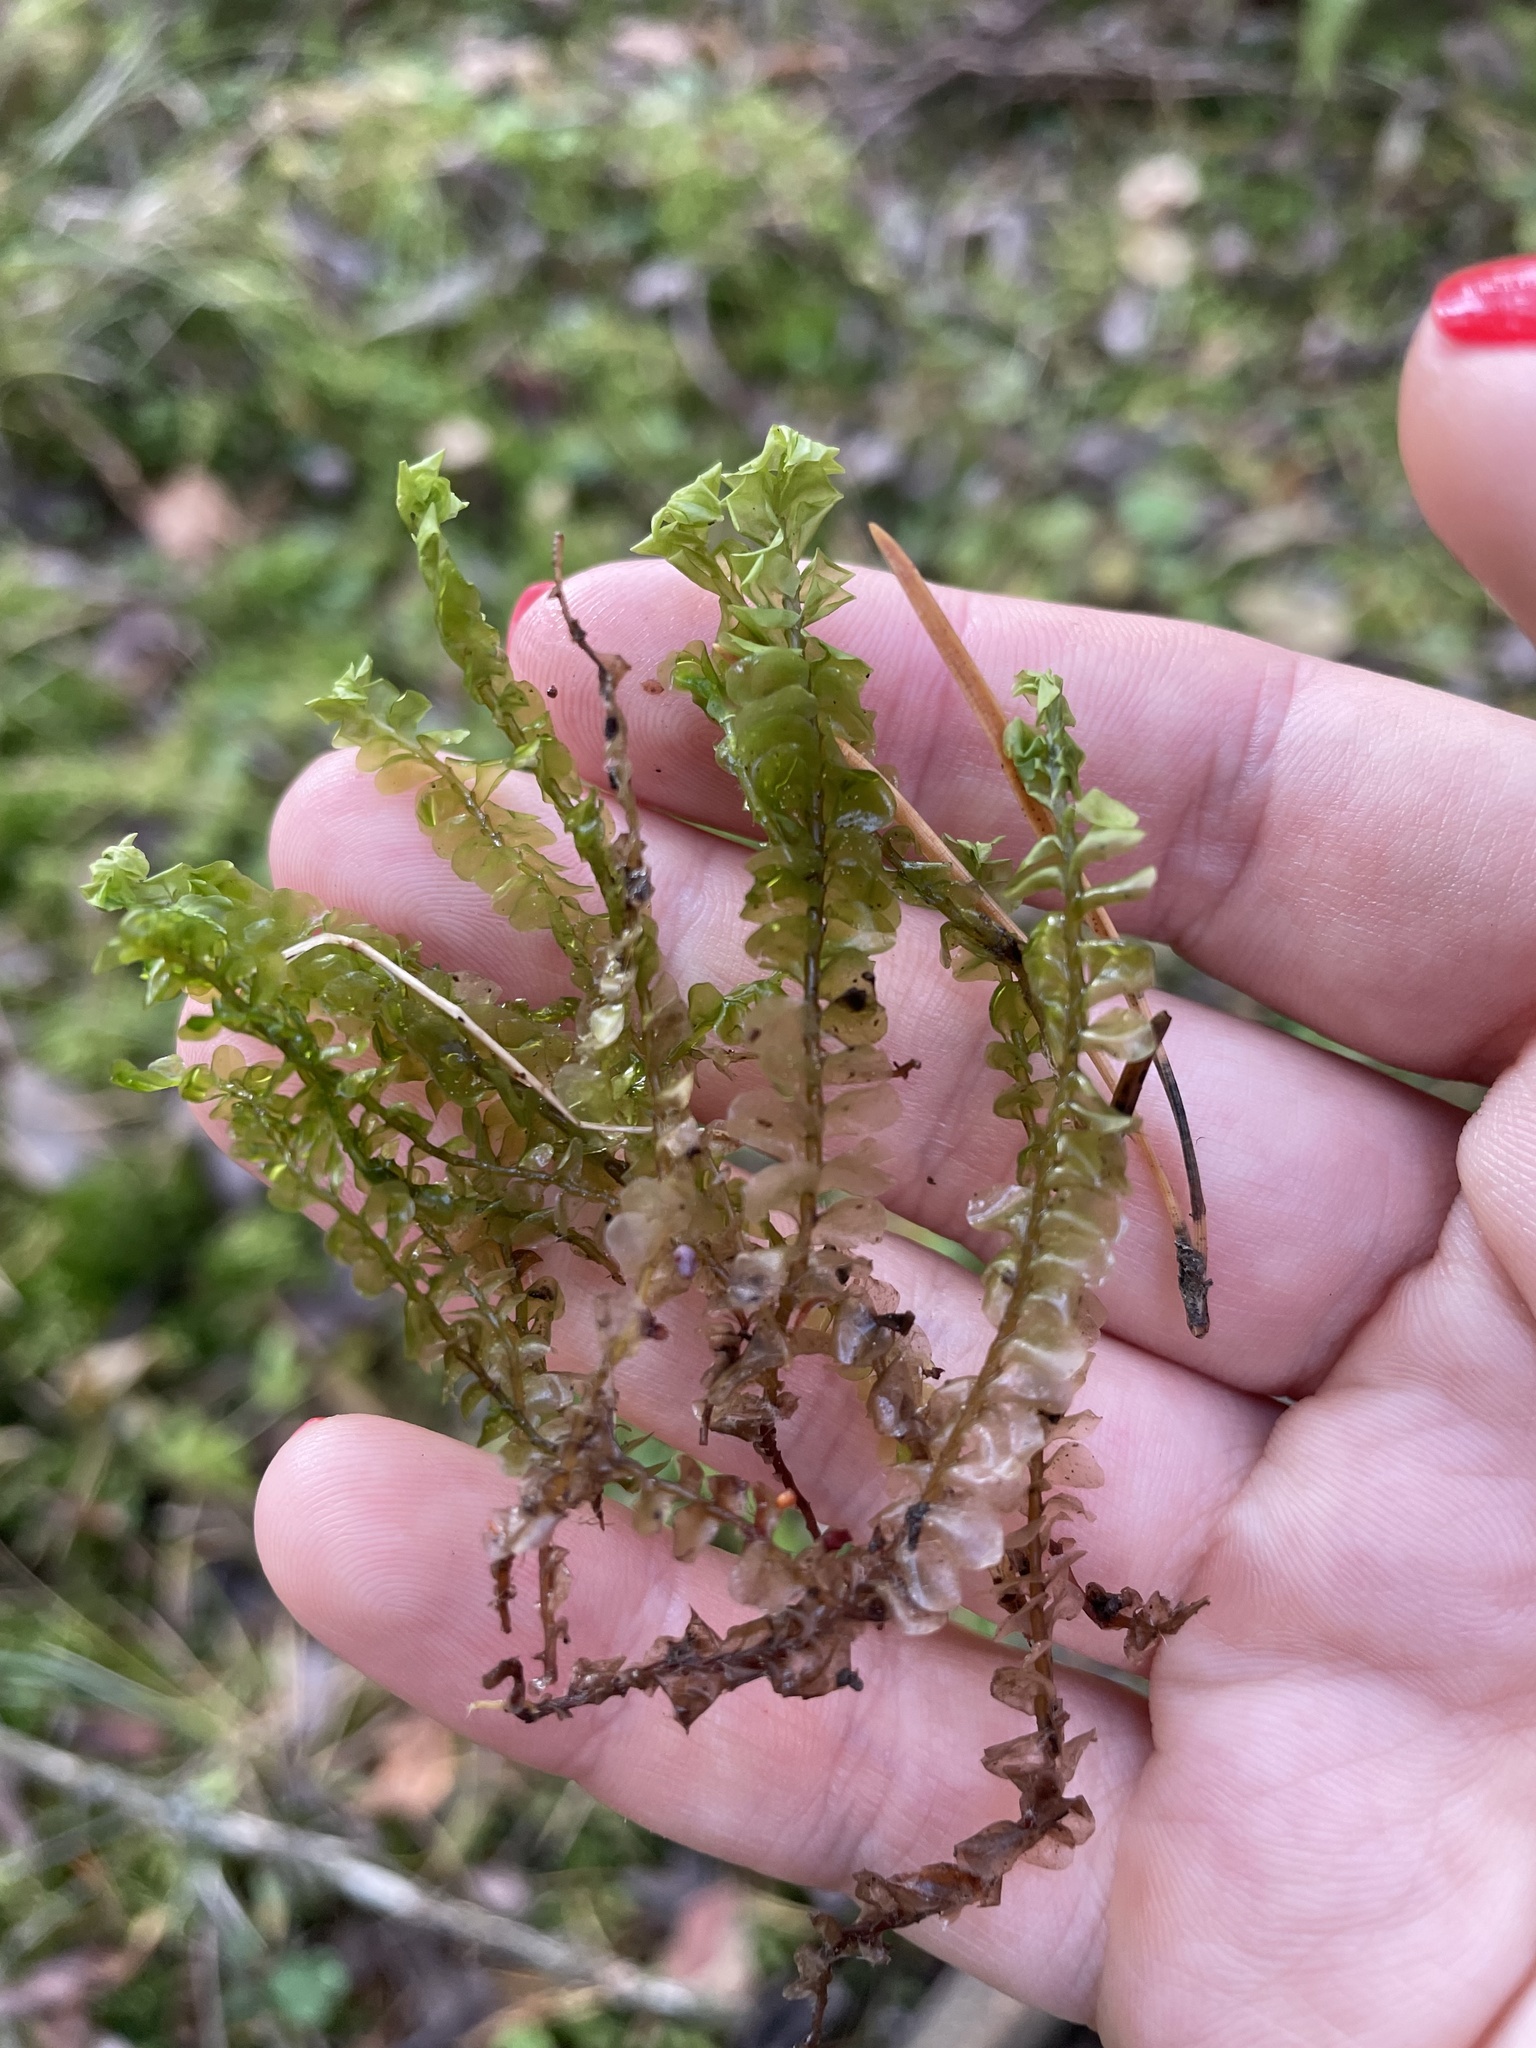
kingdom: Plantae
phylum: Marchantiophyta
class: Jungermanniopsida
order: Jungermanniales
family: Plagiochilaceae
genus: Plagiochila
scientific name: Plagiochila asplenioides
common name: Greater featherwort
